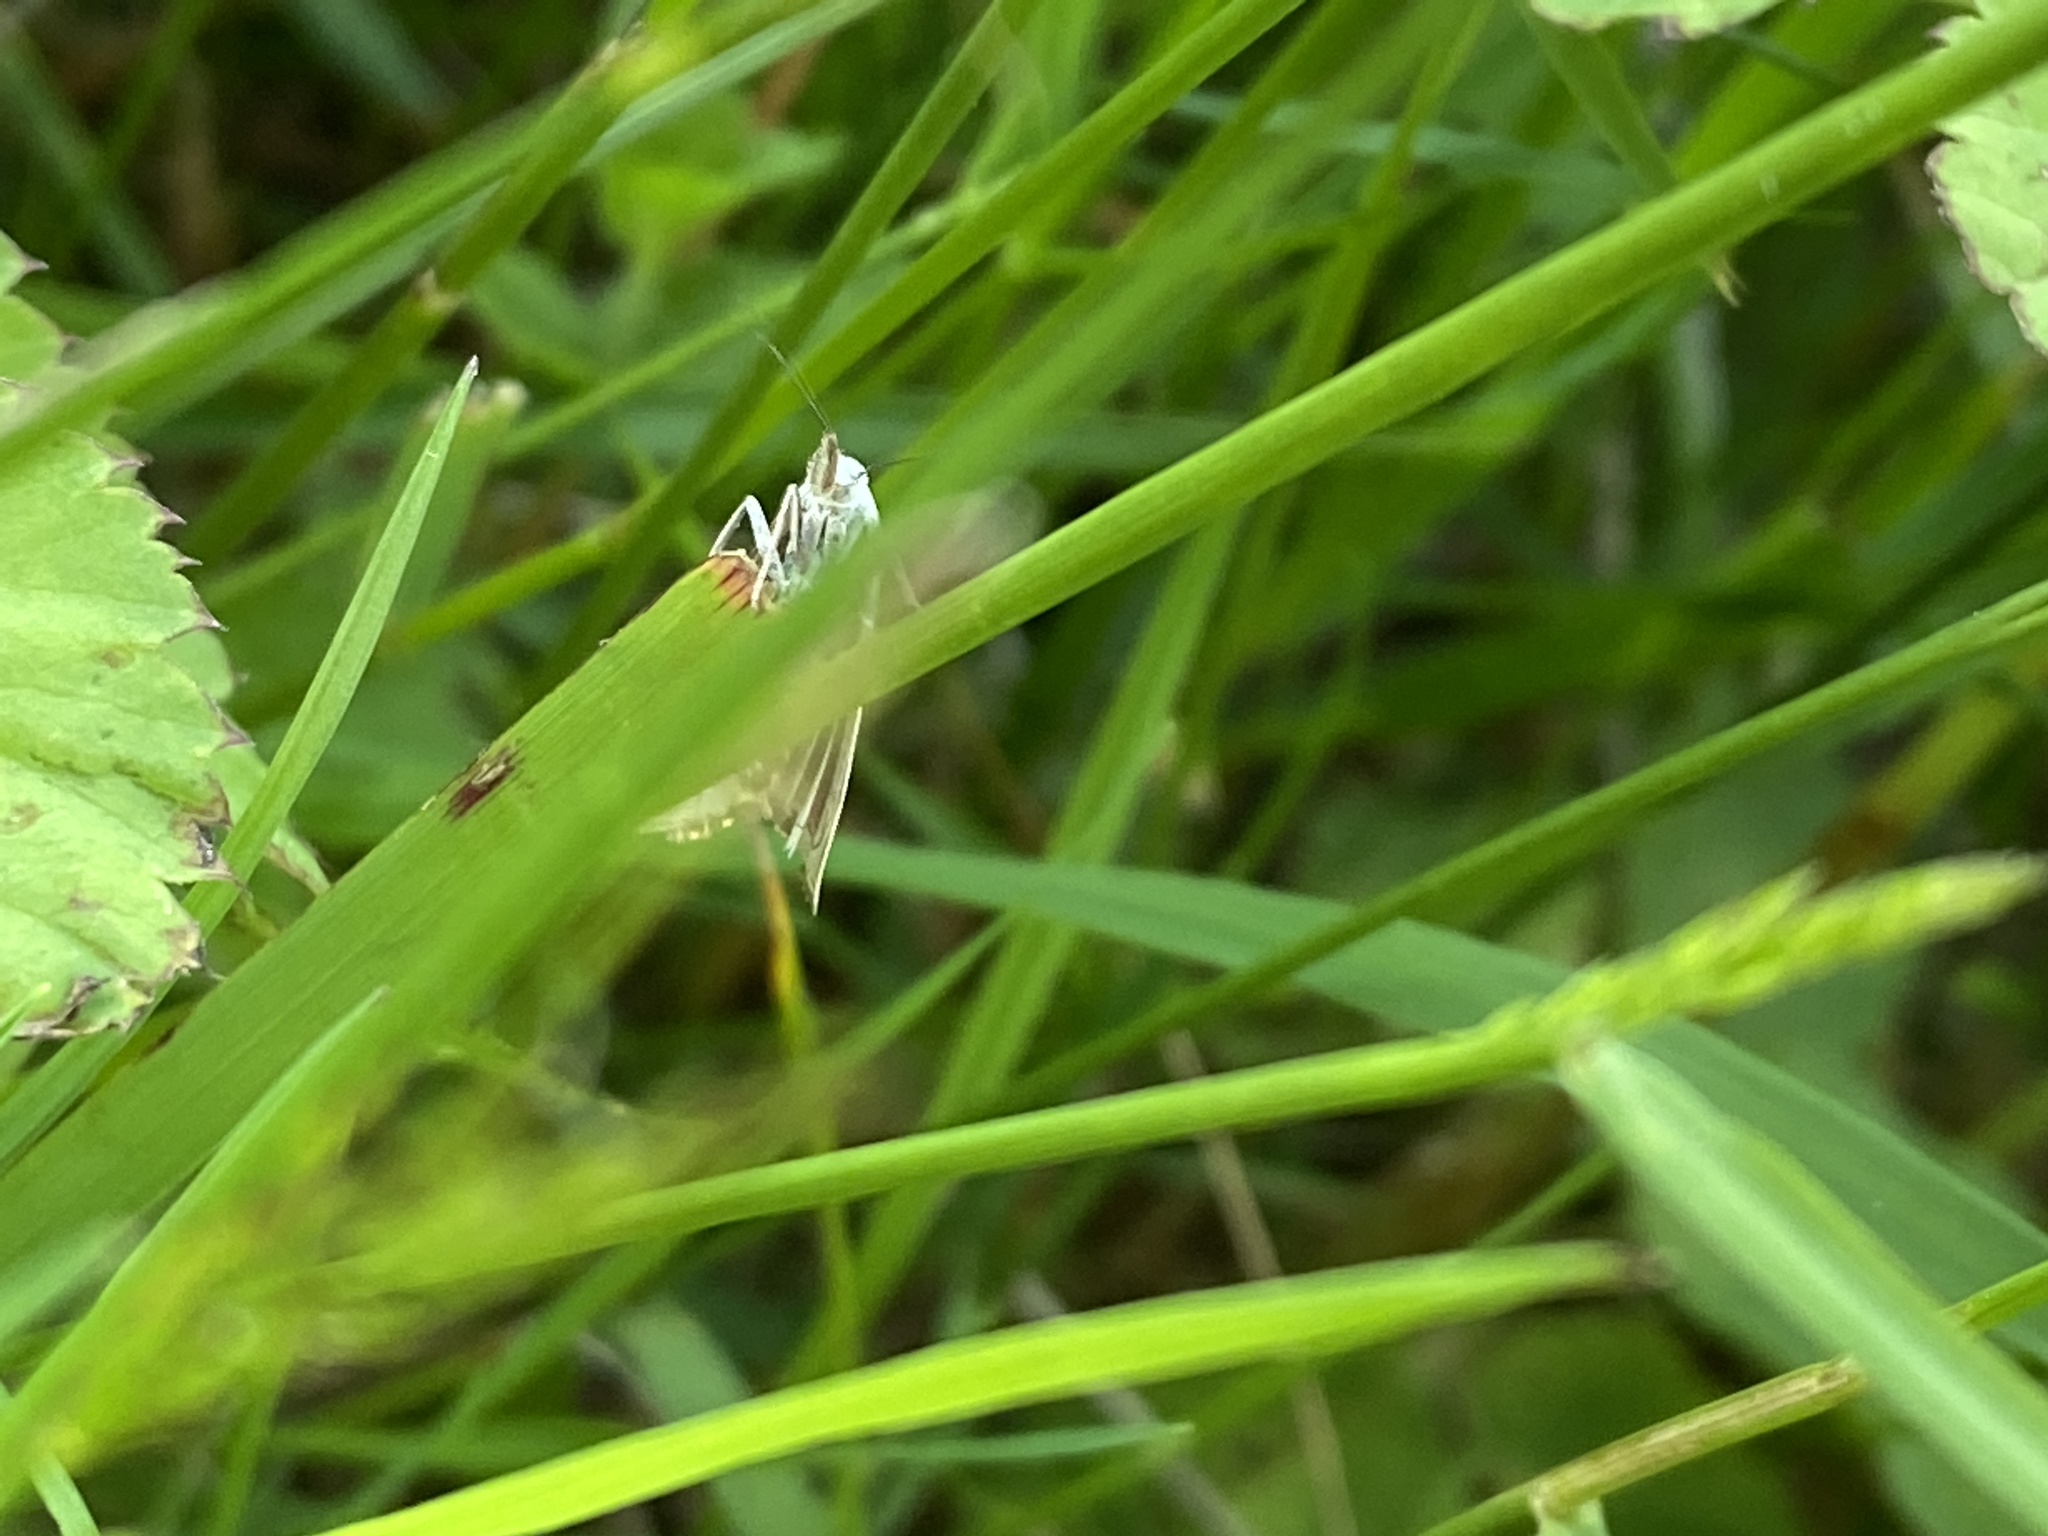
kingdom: Animalia
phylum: Arthropoda
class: Insecta
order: Lepidoptera
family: Crambidae
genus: Chrysoteuchia
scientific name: Chrysoteuchia culmella
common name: Garden grass-veneer
